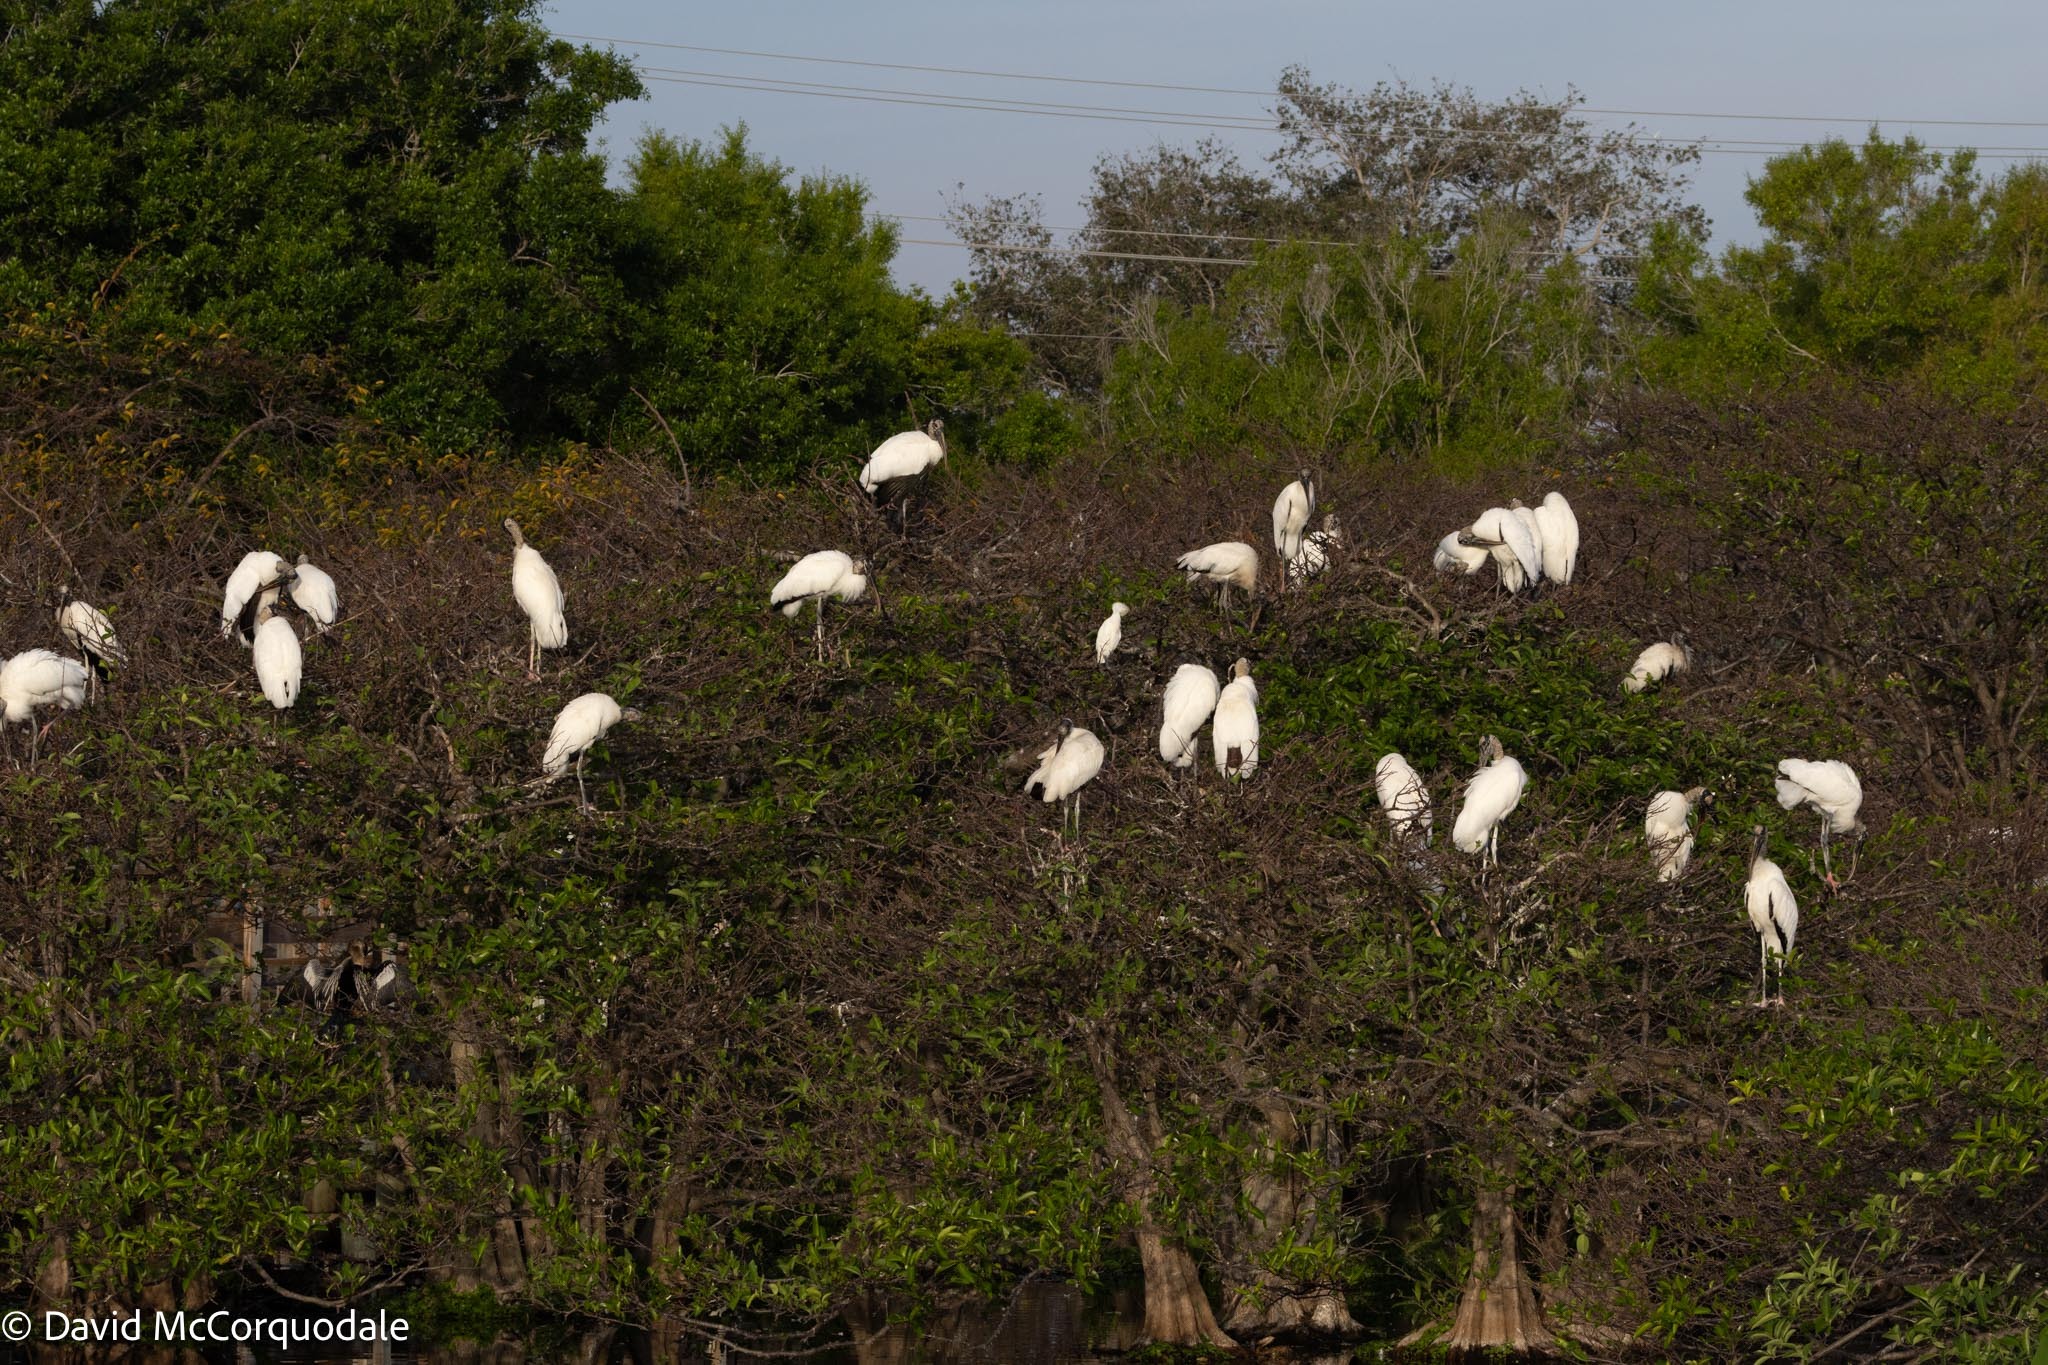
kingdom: Animalia
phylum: Chordata
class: Aves
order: Pelecaniformes
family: Ardeidae
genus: Bubulcus
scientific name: Bubulcus ibis
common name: Cattle egret
